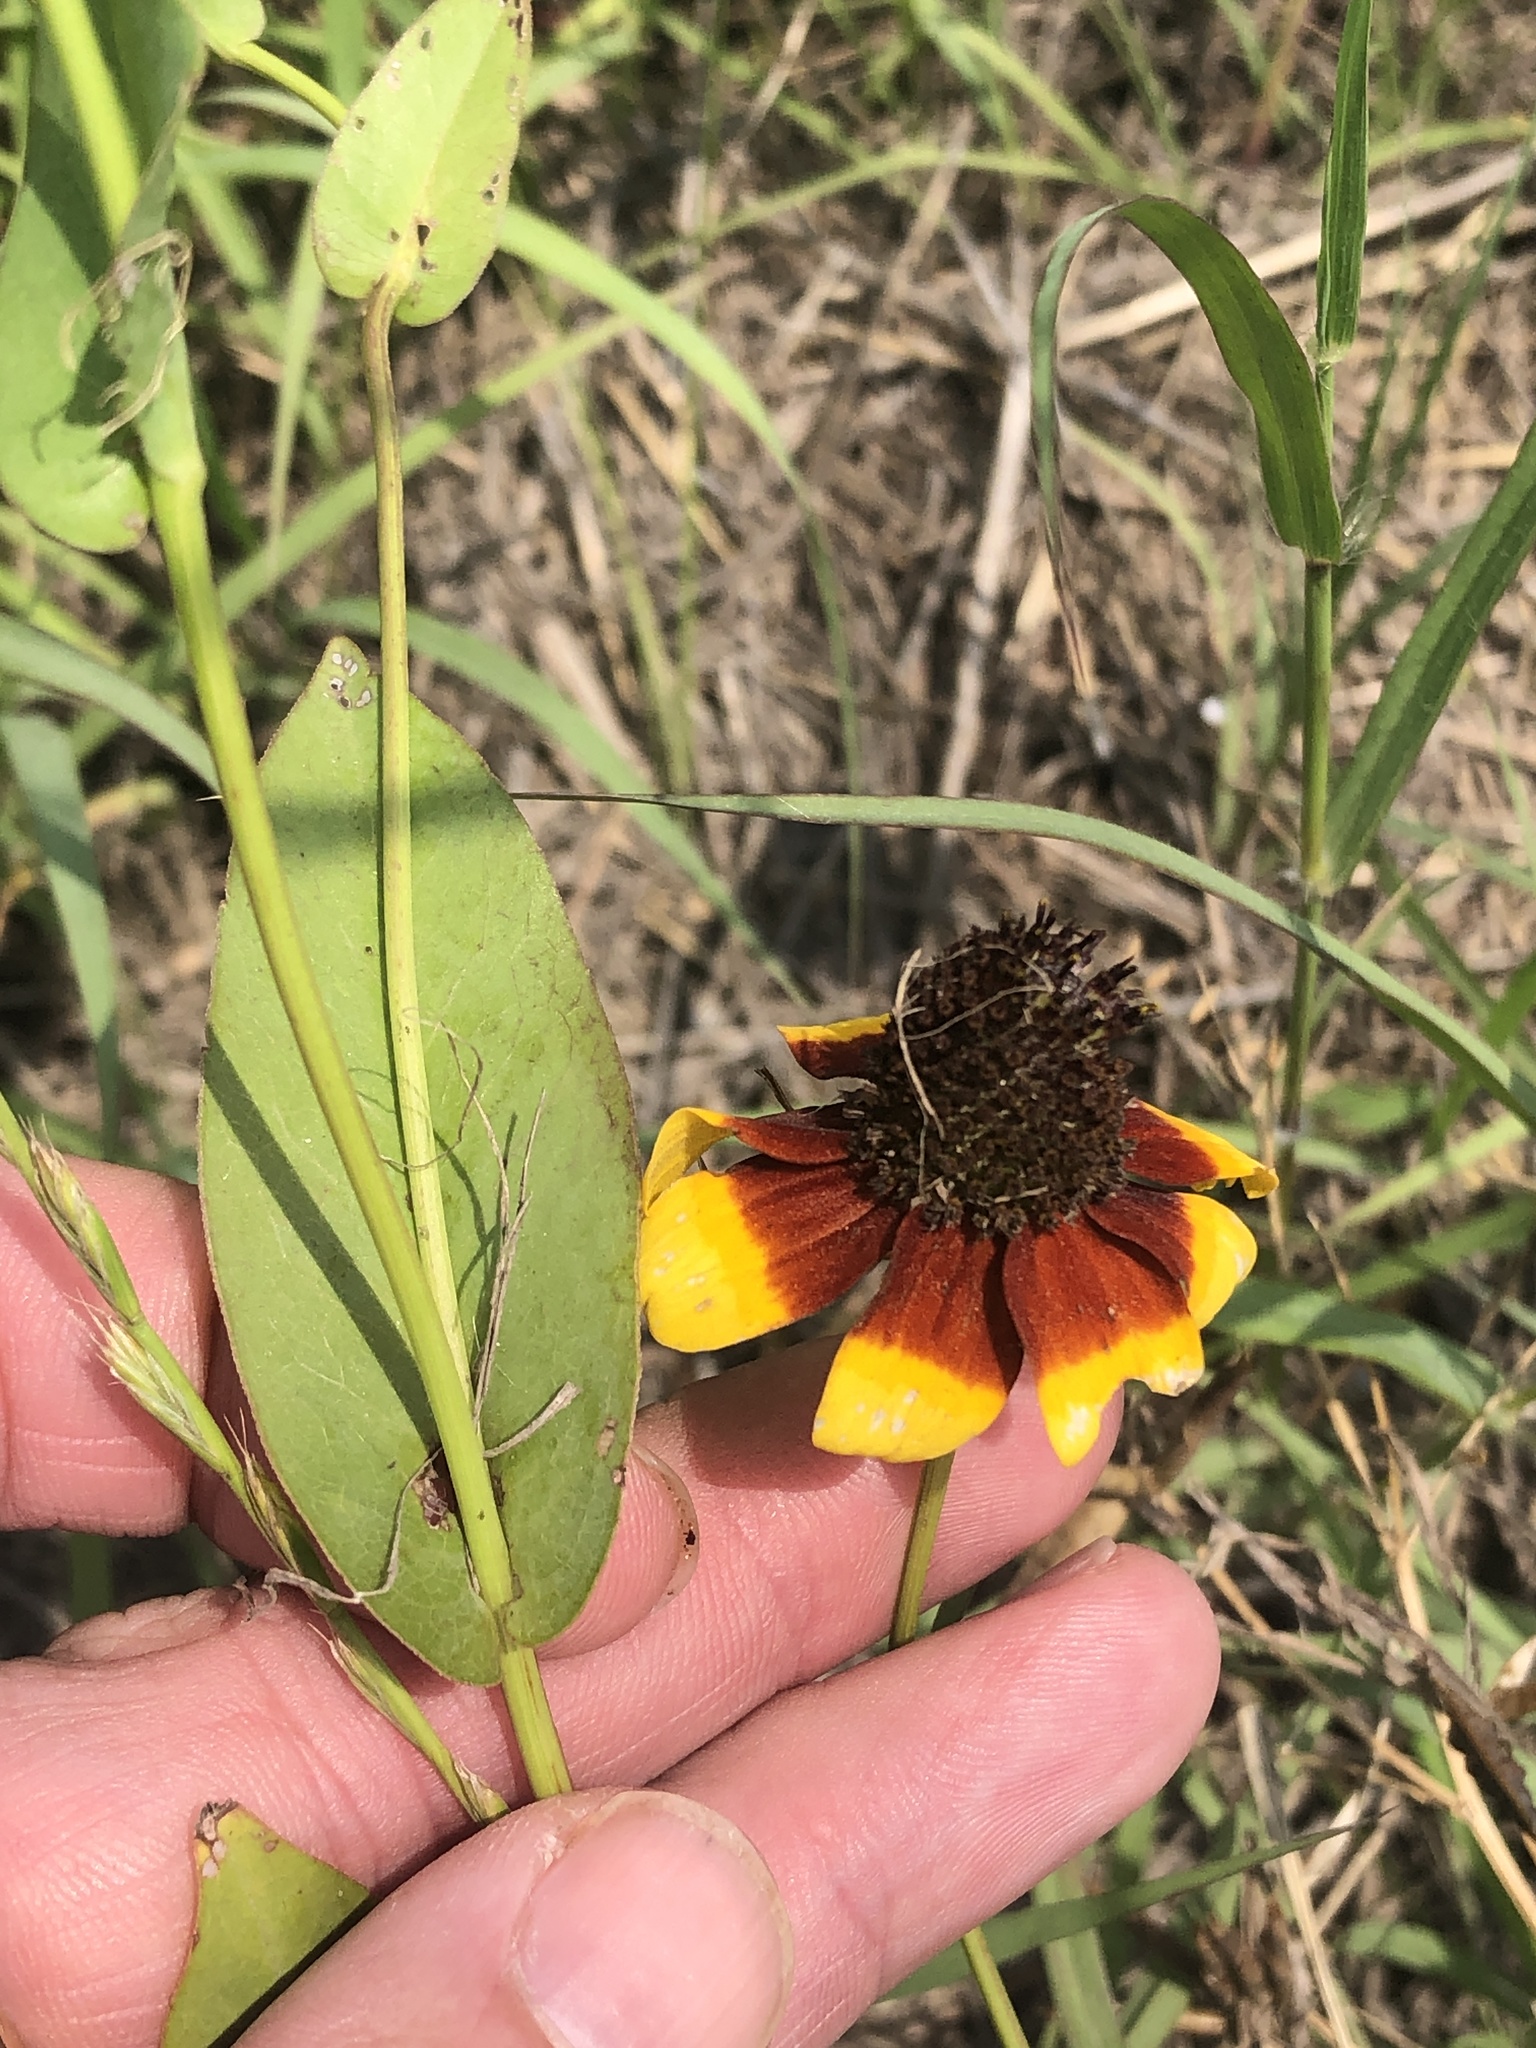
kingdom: Plantae
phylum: Tracheophyta
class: Magnoliopsida
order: Asterales
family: Asteraceae
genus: Rudbeckia
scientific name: Rudbeckia amplexicaulis
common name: Clasping-leaf coneflower
